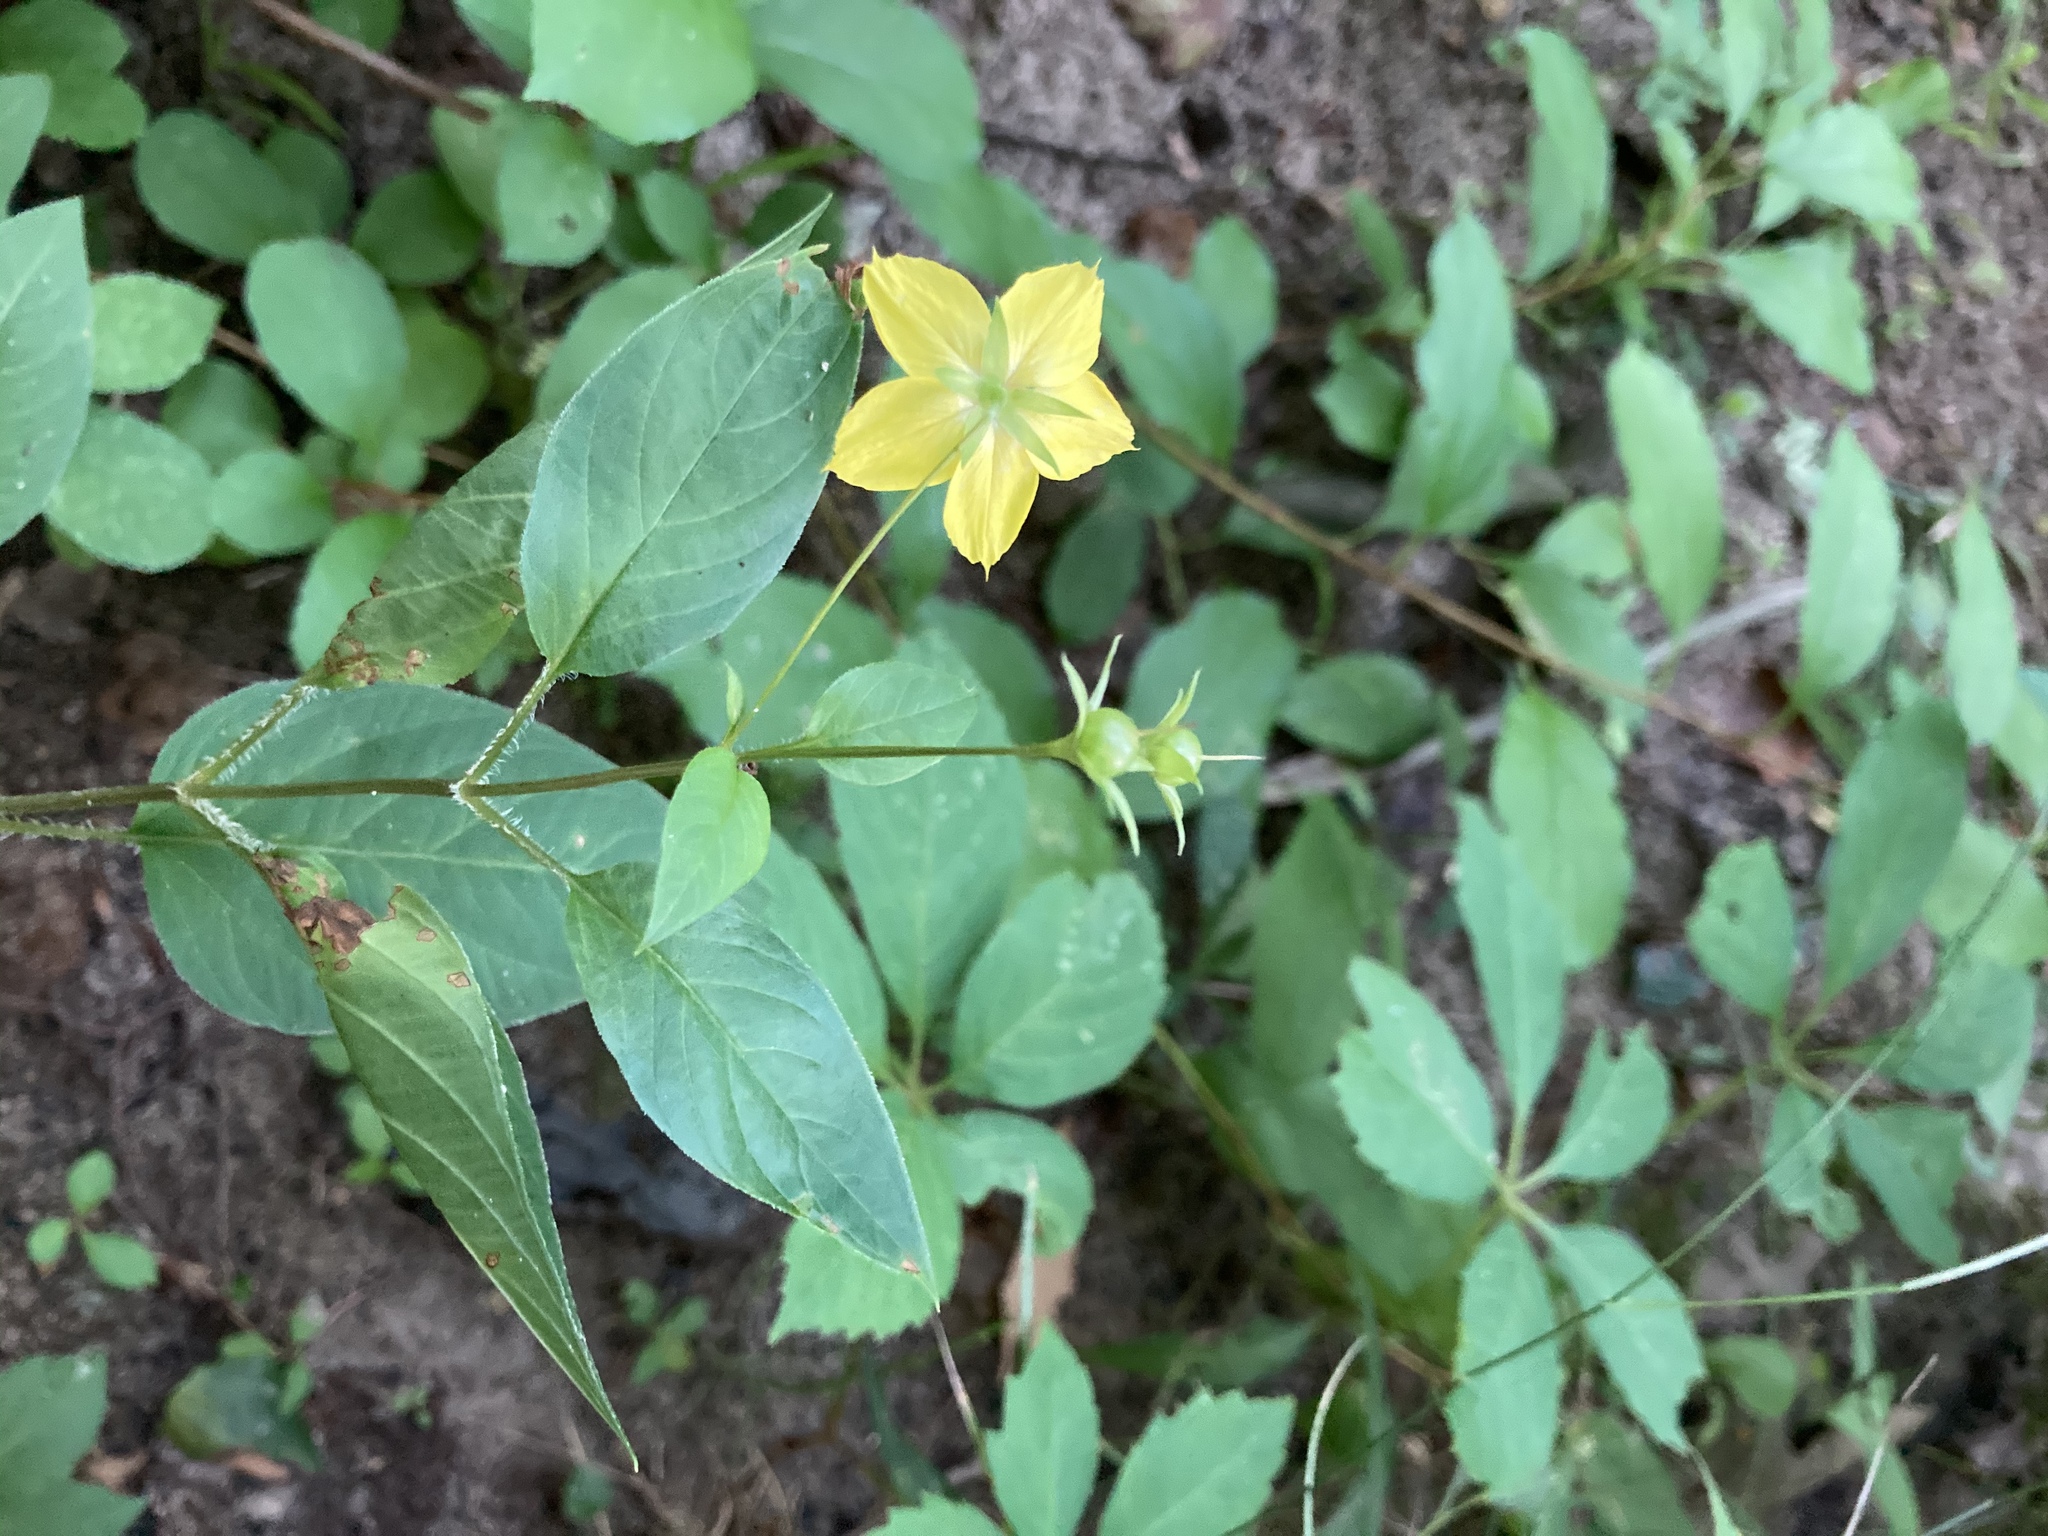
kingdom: Plantae
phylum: Tracheophyta
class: Magnoliopsida
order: Ericales
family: Primulaceae
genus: Lysimachia
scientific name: Lysimachia ciliata
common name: Fringed loosestrife
